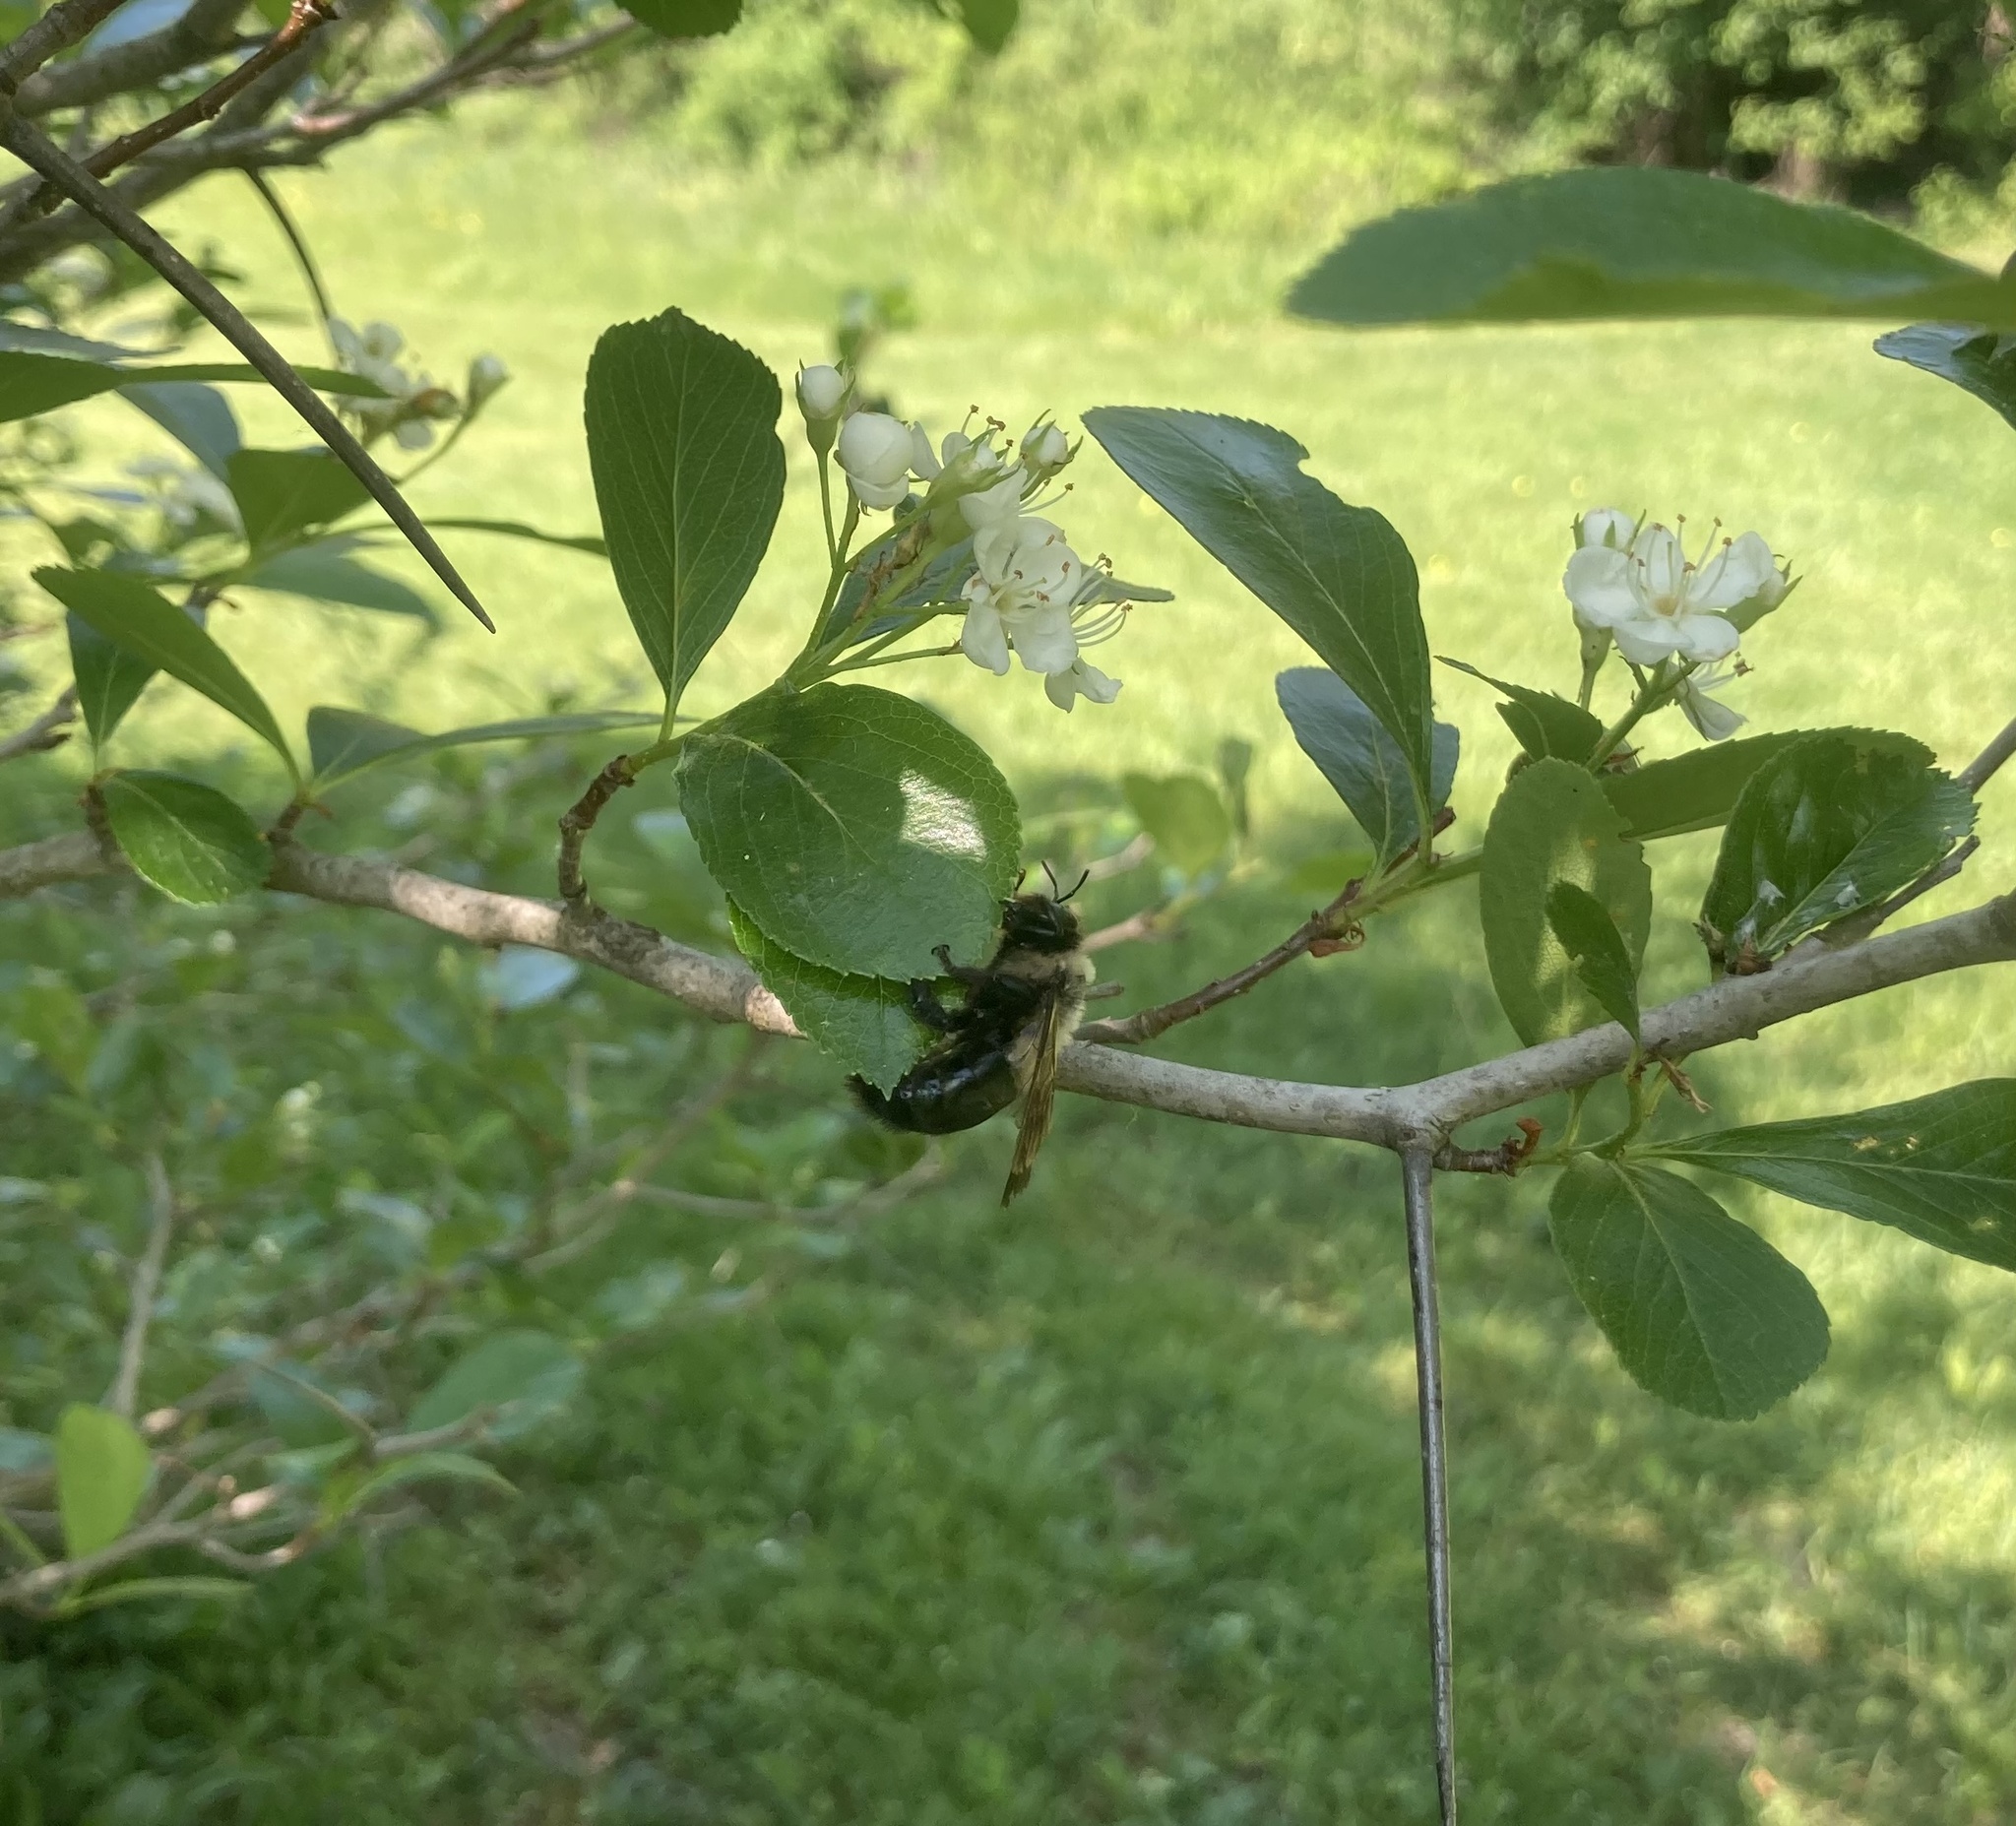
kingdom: Animalia
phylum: Arthropoda
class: Insecta
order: Hymenoptera
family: Apidae
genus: Xylocopa
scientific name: Xylocopa virginica
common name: Carpenter bee
